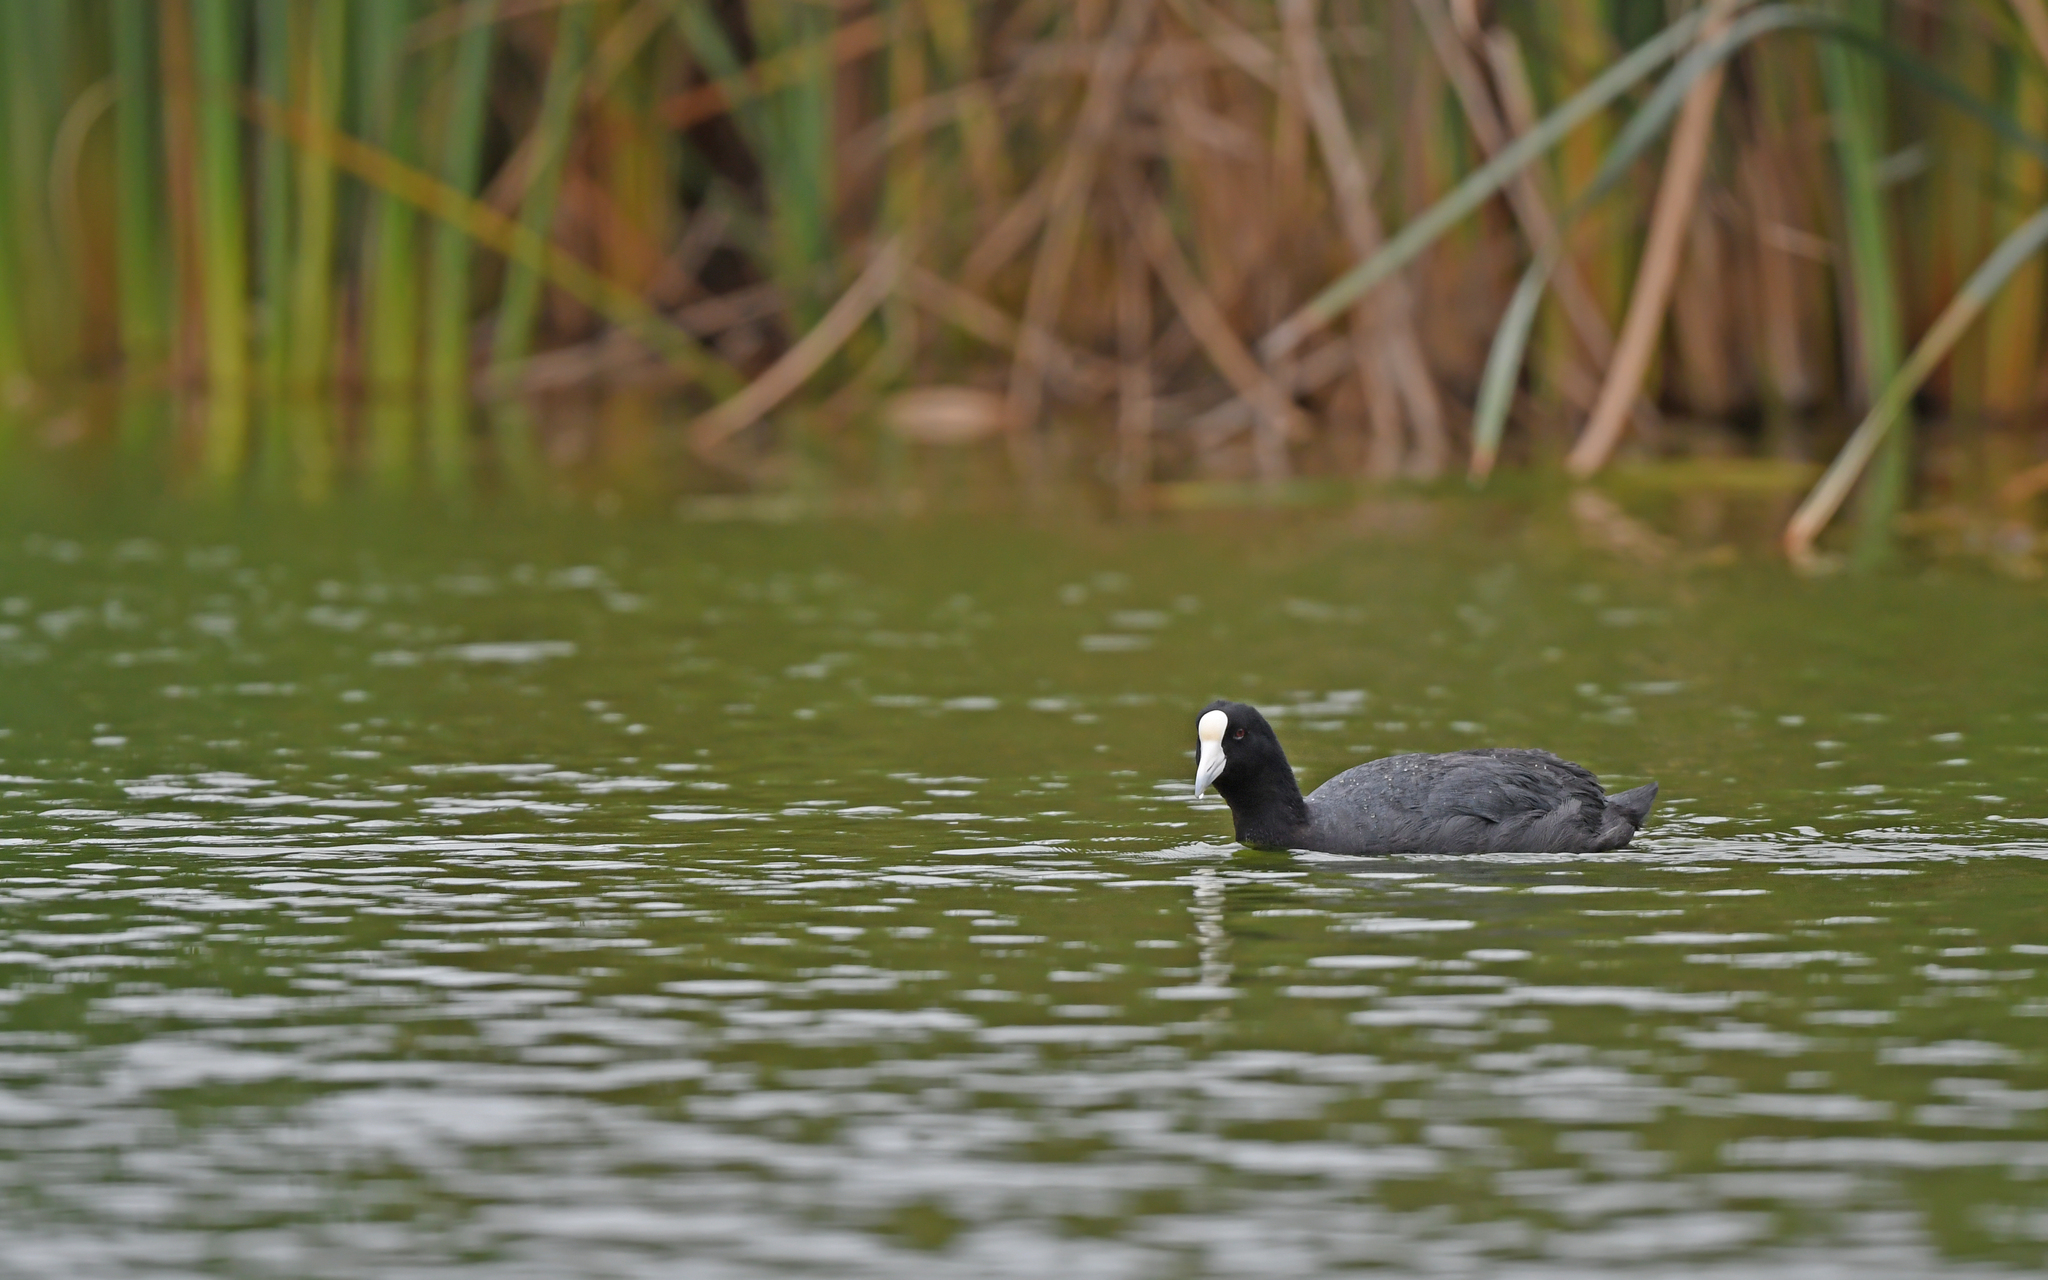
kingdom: Animalia
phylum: Chordata
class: Aves
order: Gruiformes
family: Rallidae
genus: Fulica
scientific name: Fulica ardesiaca
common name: Andean coot
